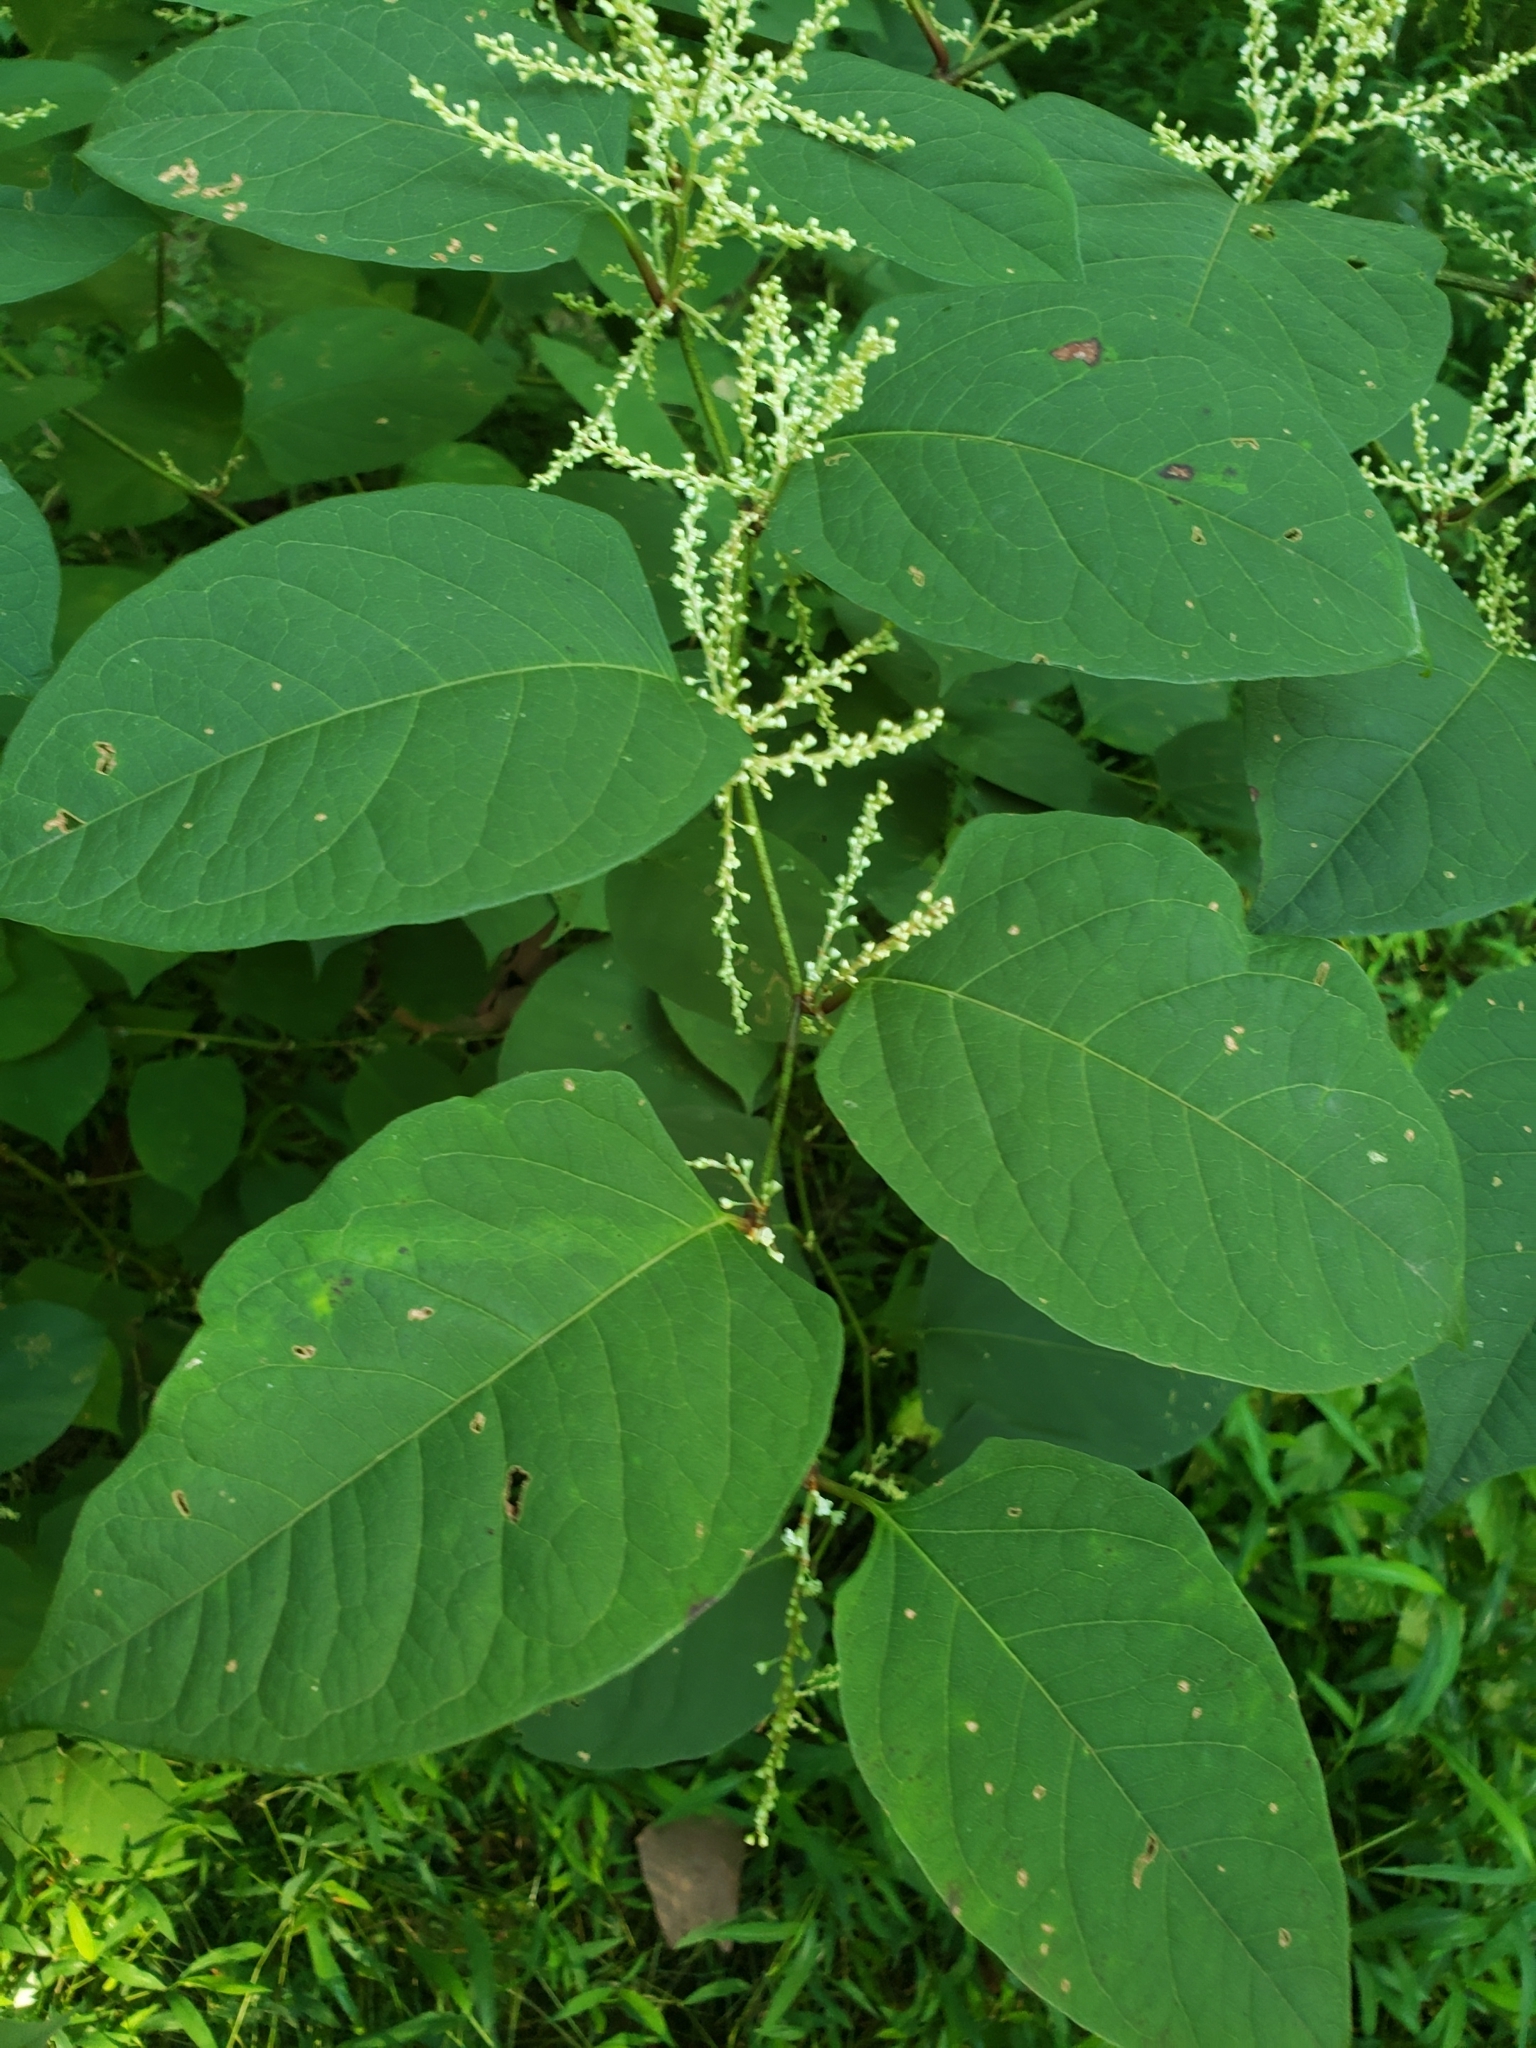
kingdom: Plantae
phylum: Tracheophyta
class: Magnoliopsida
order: Caryophyllales
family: Polygonaceae
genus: Reynoutria
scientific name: Reynoutria japonica
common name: Japanese knotweed
